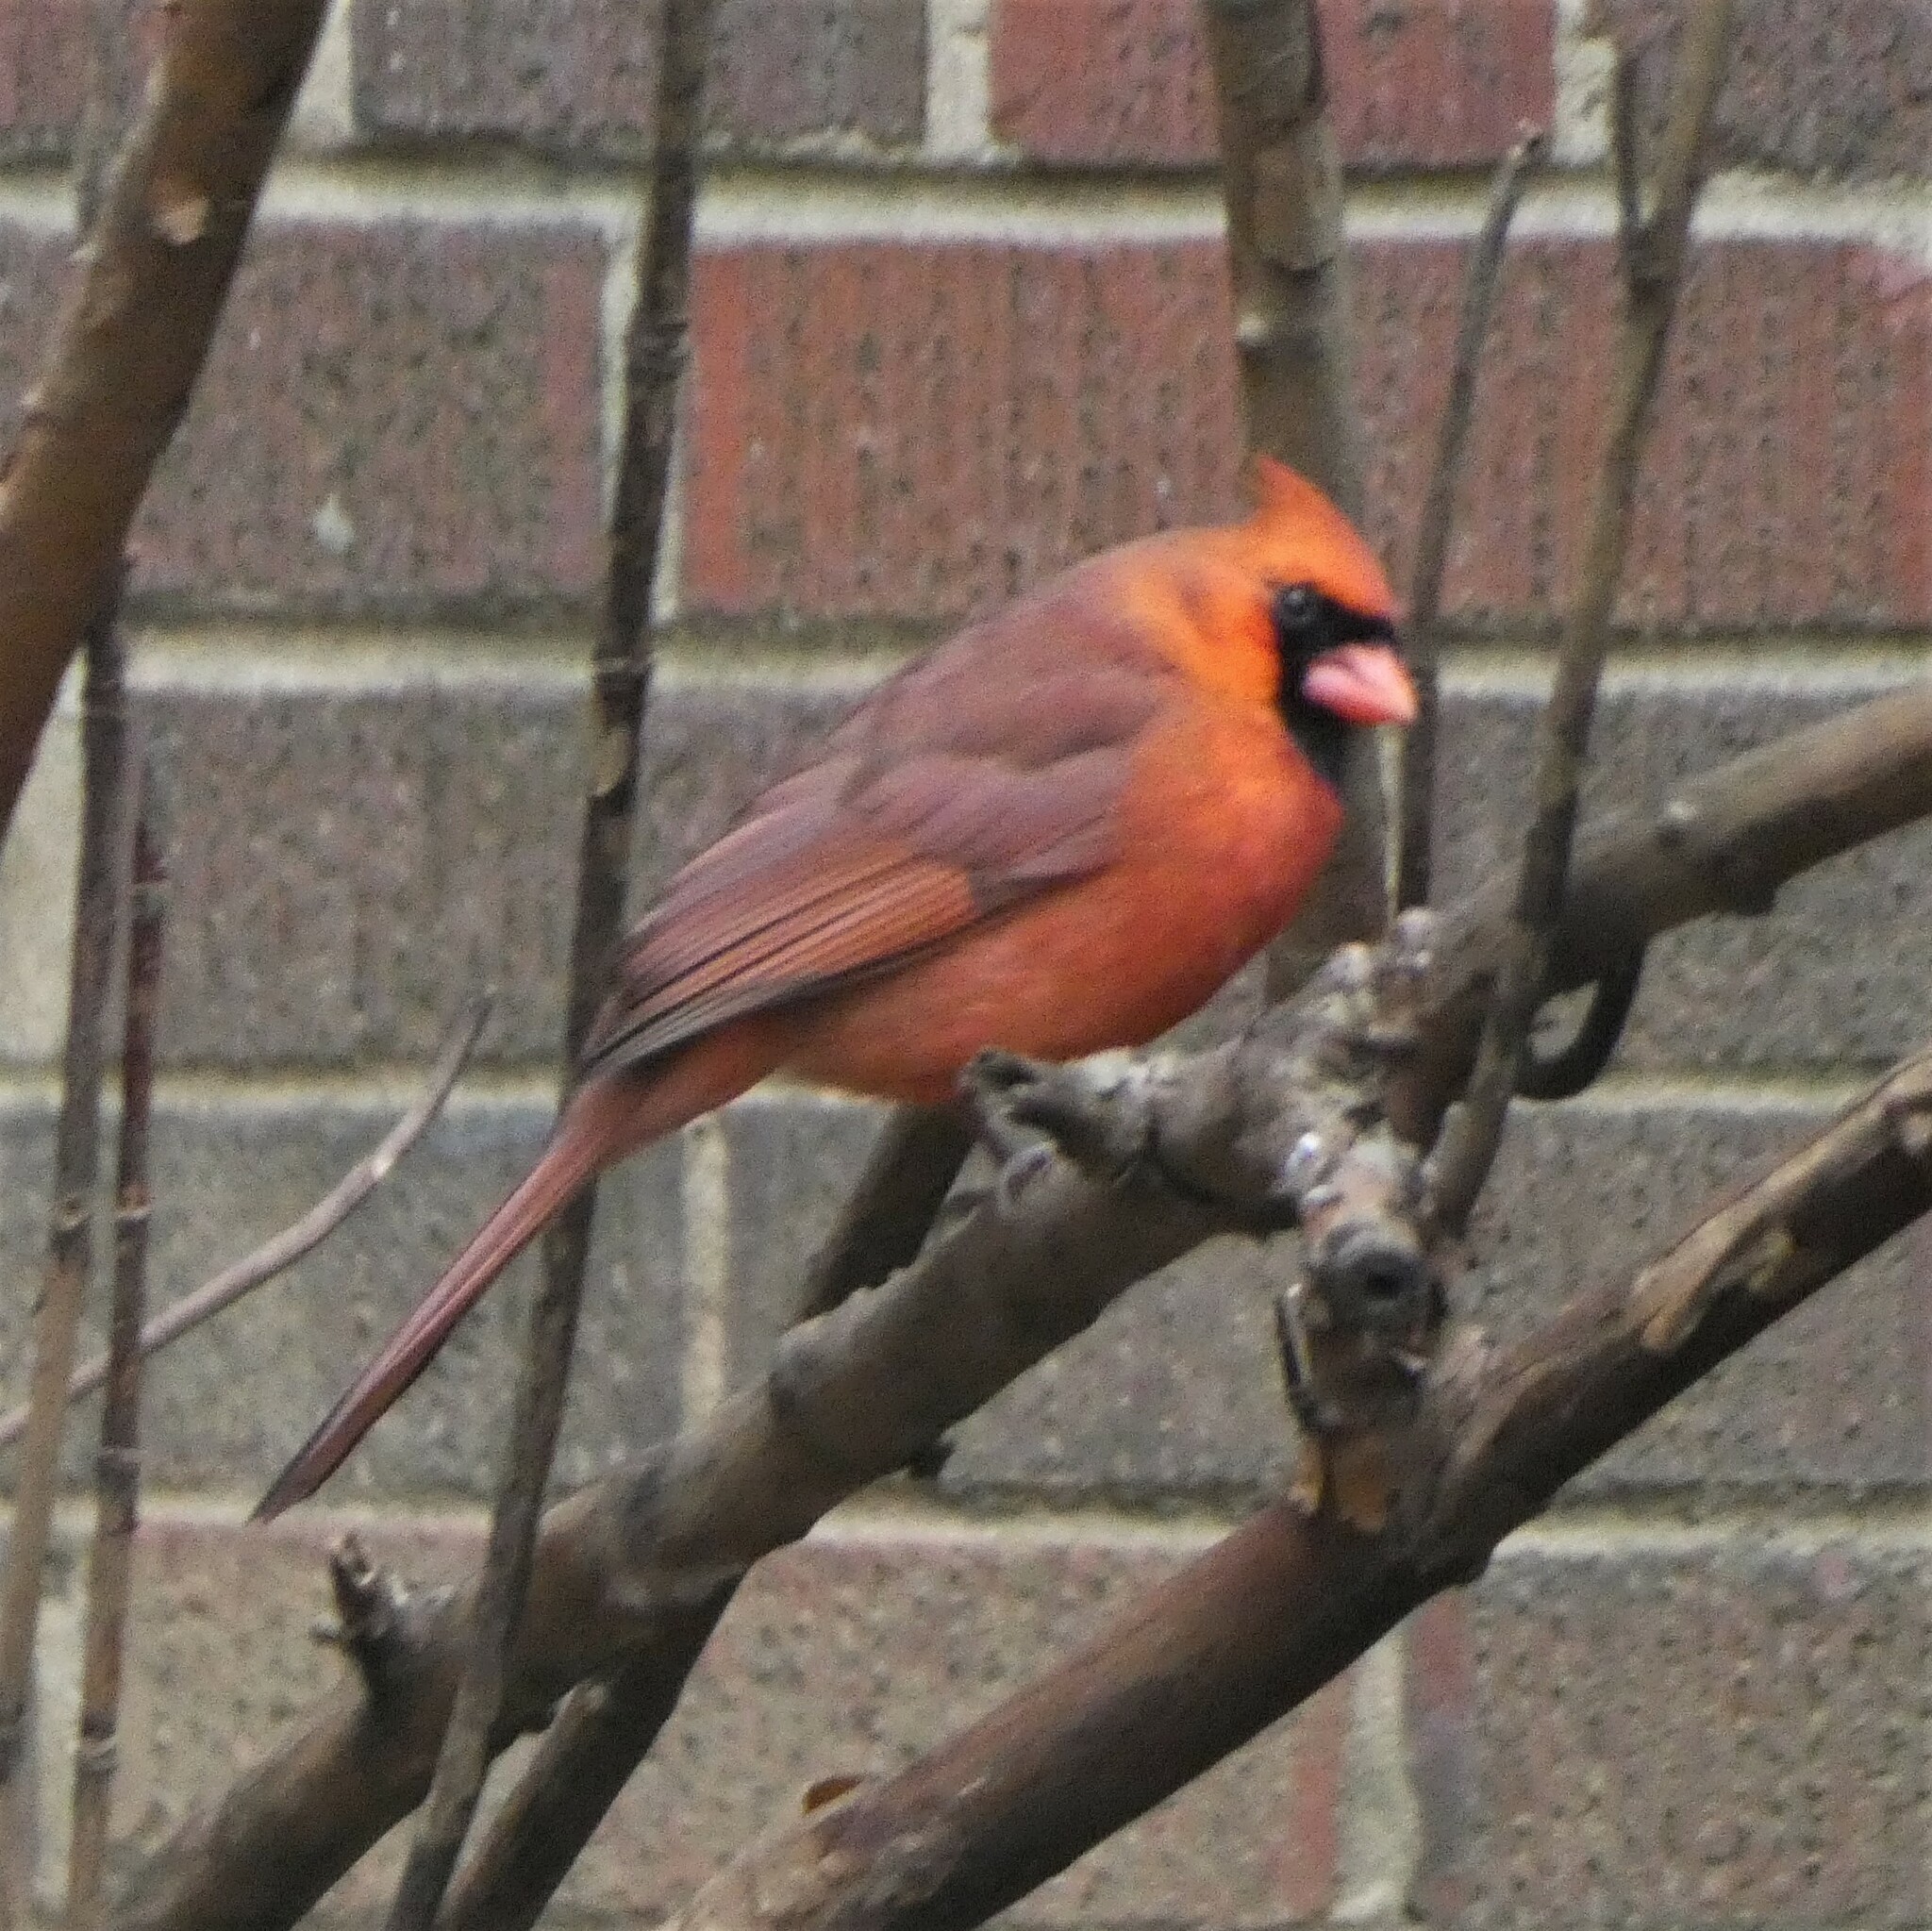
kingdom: Animalia
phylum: Chordata
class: Aves
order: Passeriformes
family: Cardinalidae
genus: Cardinalis
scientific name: Cardinalis cardinalis
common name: Northern cardinal
